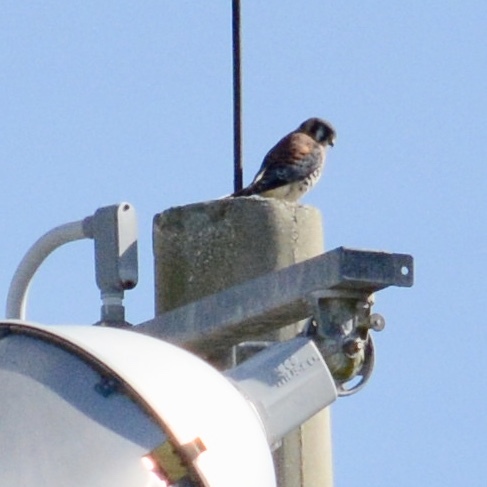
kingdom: Animalia
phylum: Chordata
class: Aves
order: Falconiformes
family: Falconidae
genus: Falco
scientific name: Falco sparverius
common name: American kestrel
